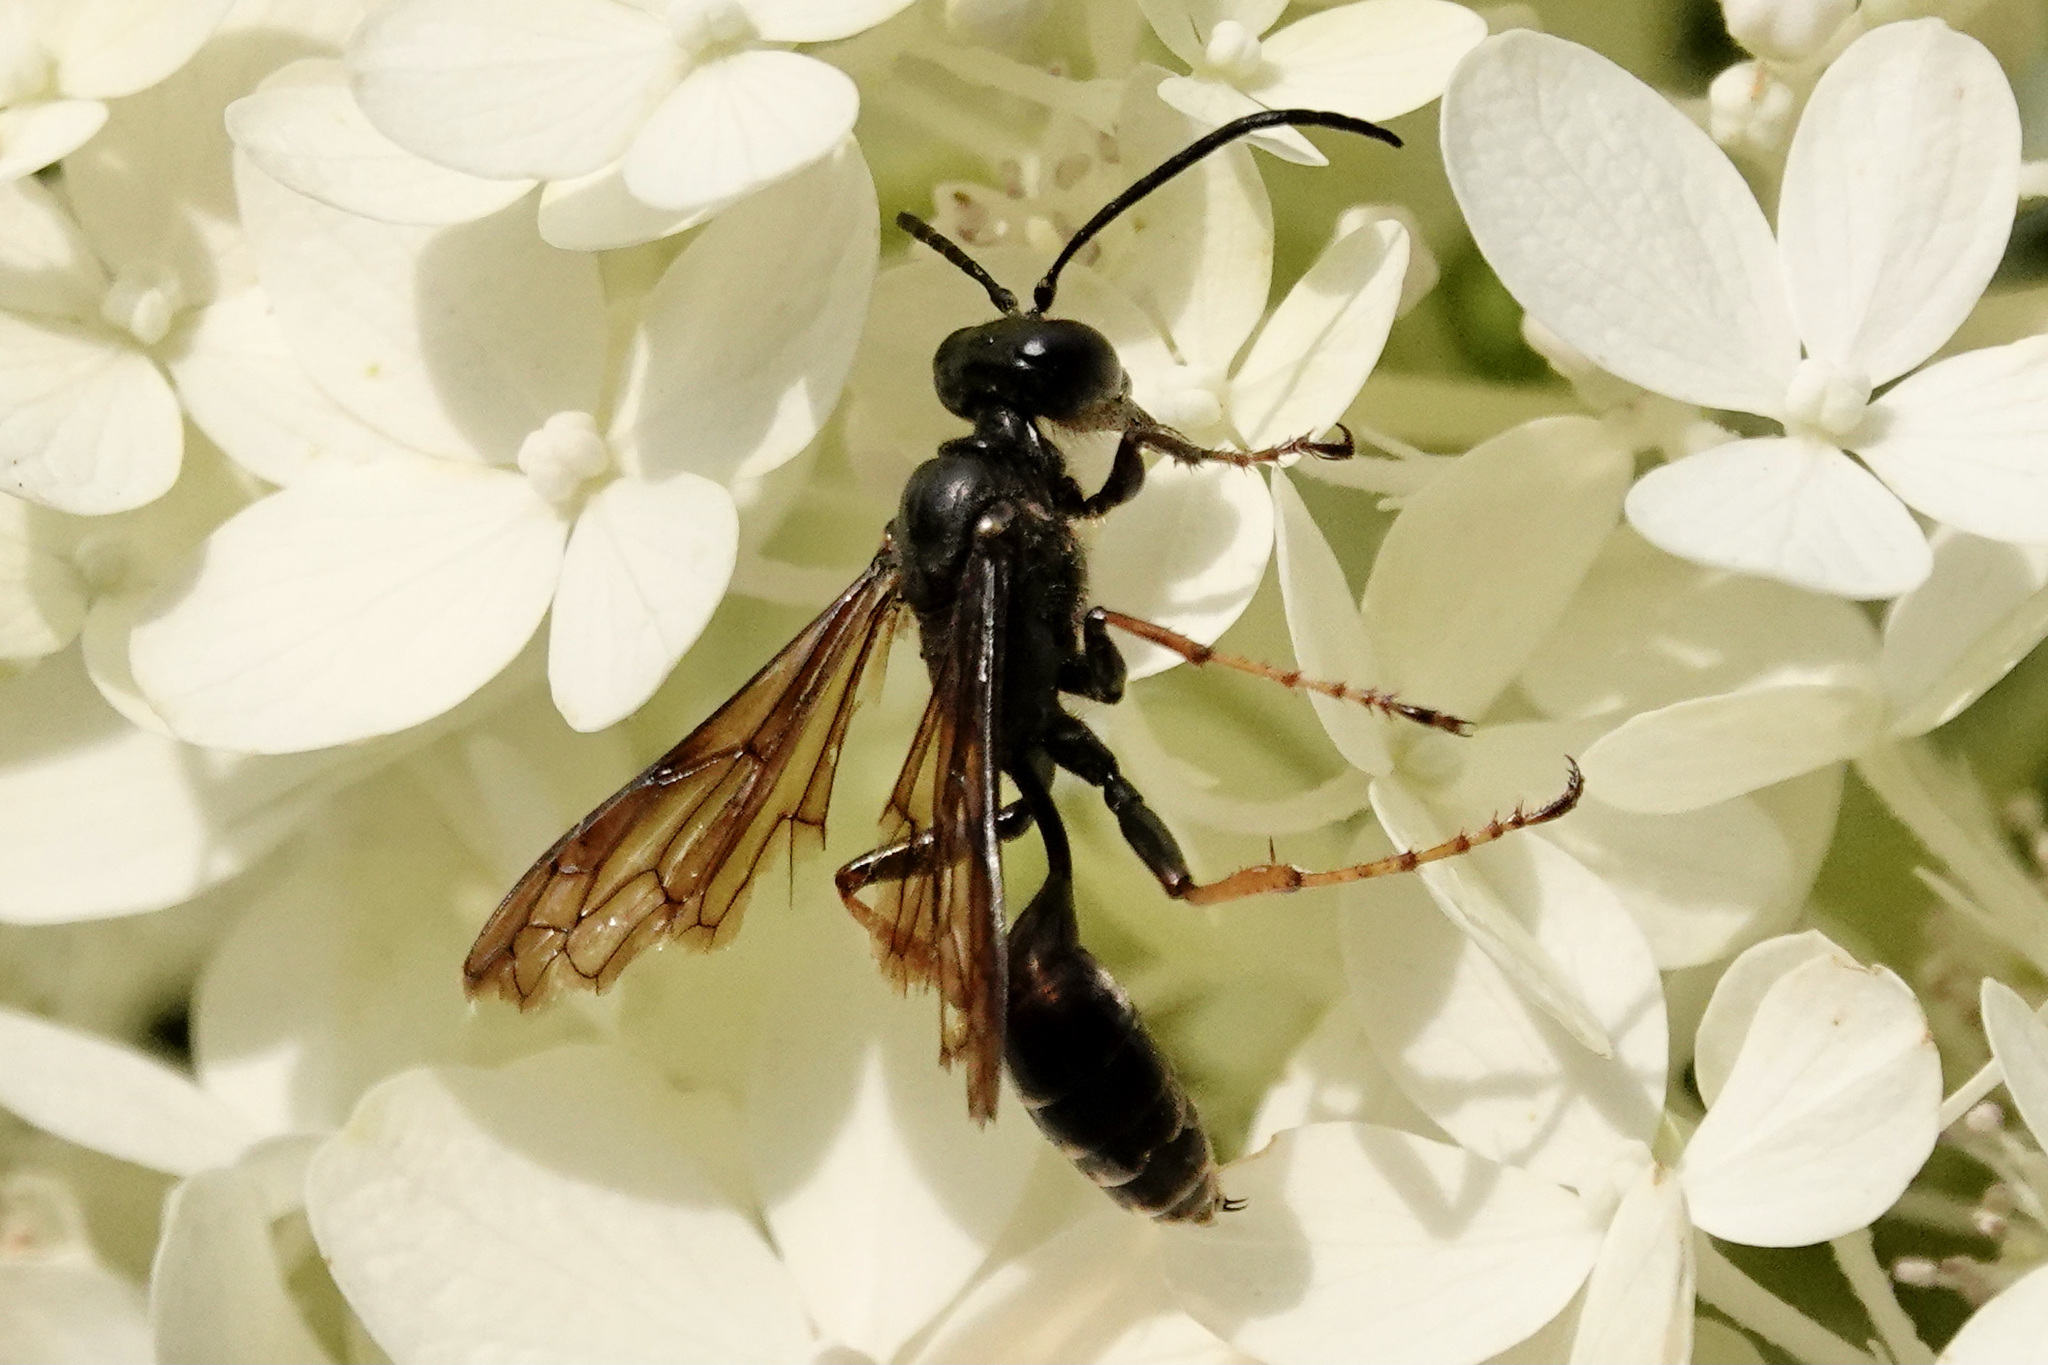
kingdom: Animalia
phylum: Arthropoda
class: Insecta
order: Hymenoptera
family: Sphecidae
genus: Isodontia
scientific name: Isodontia auripes
